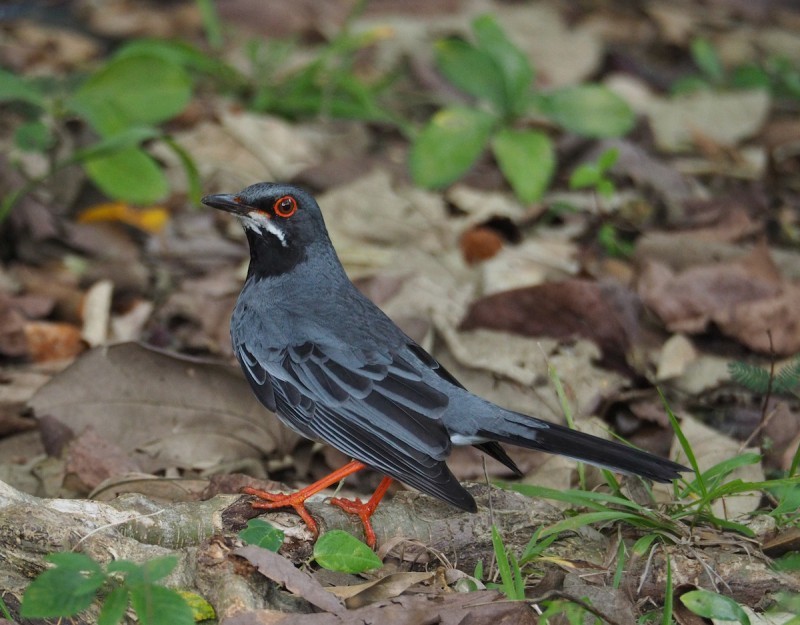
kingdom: Animalia
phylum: Chordata
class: Aves
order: Passeriformes
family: Turdidae
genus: Turdus
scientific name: Turdus plumbeus
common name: Red-legged thrush
